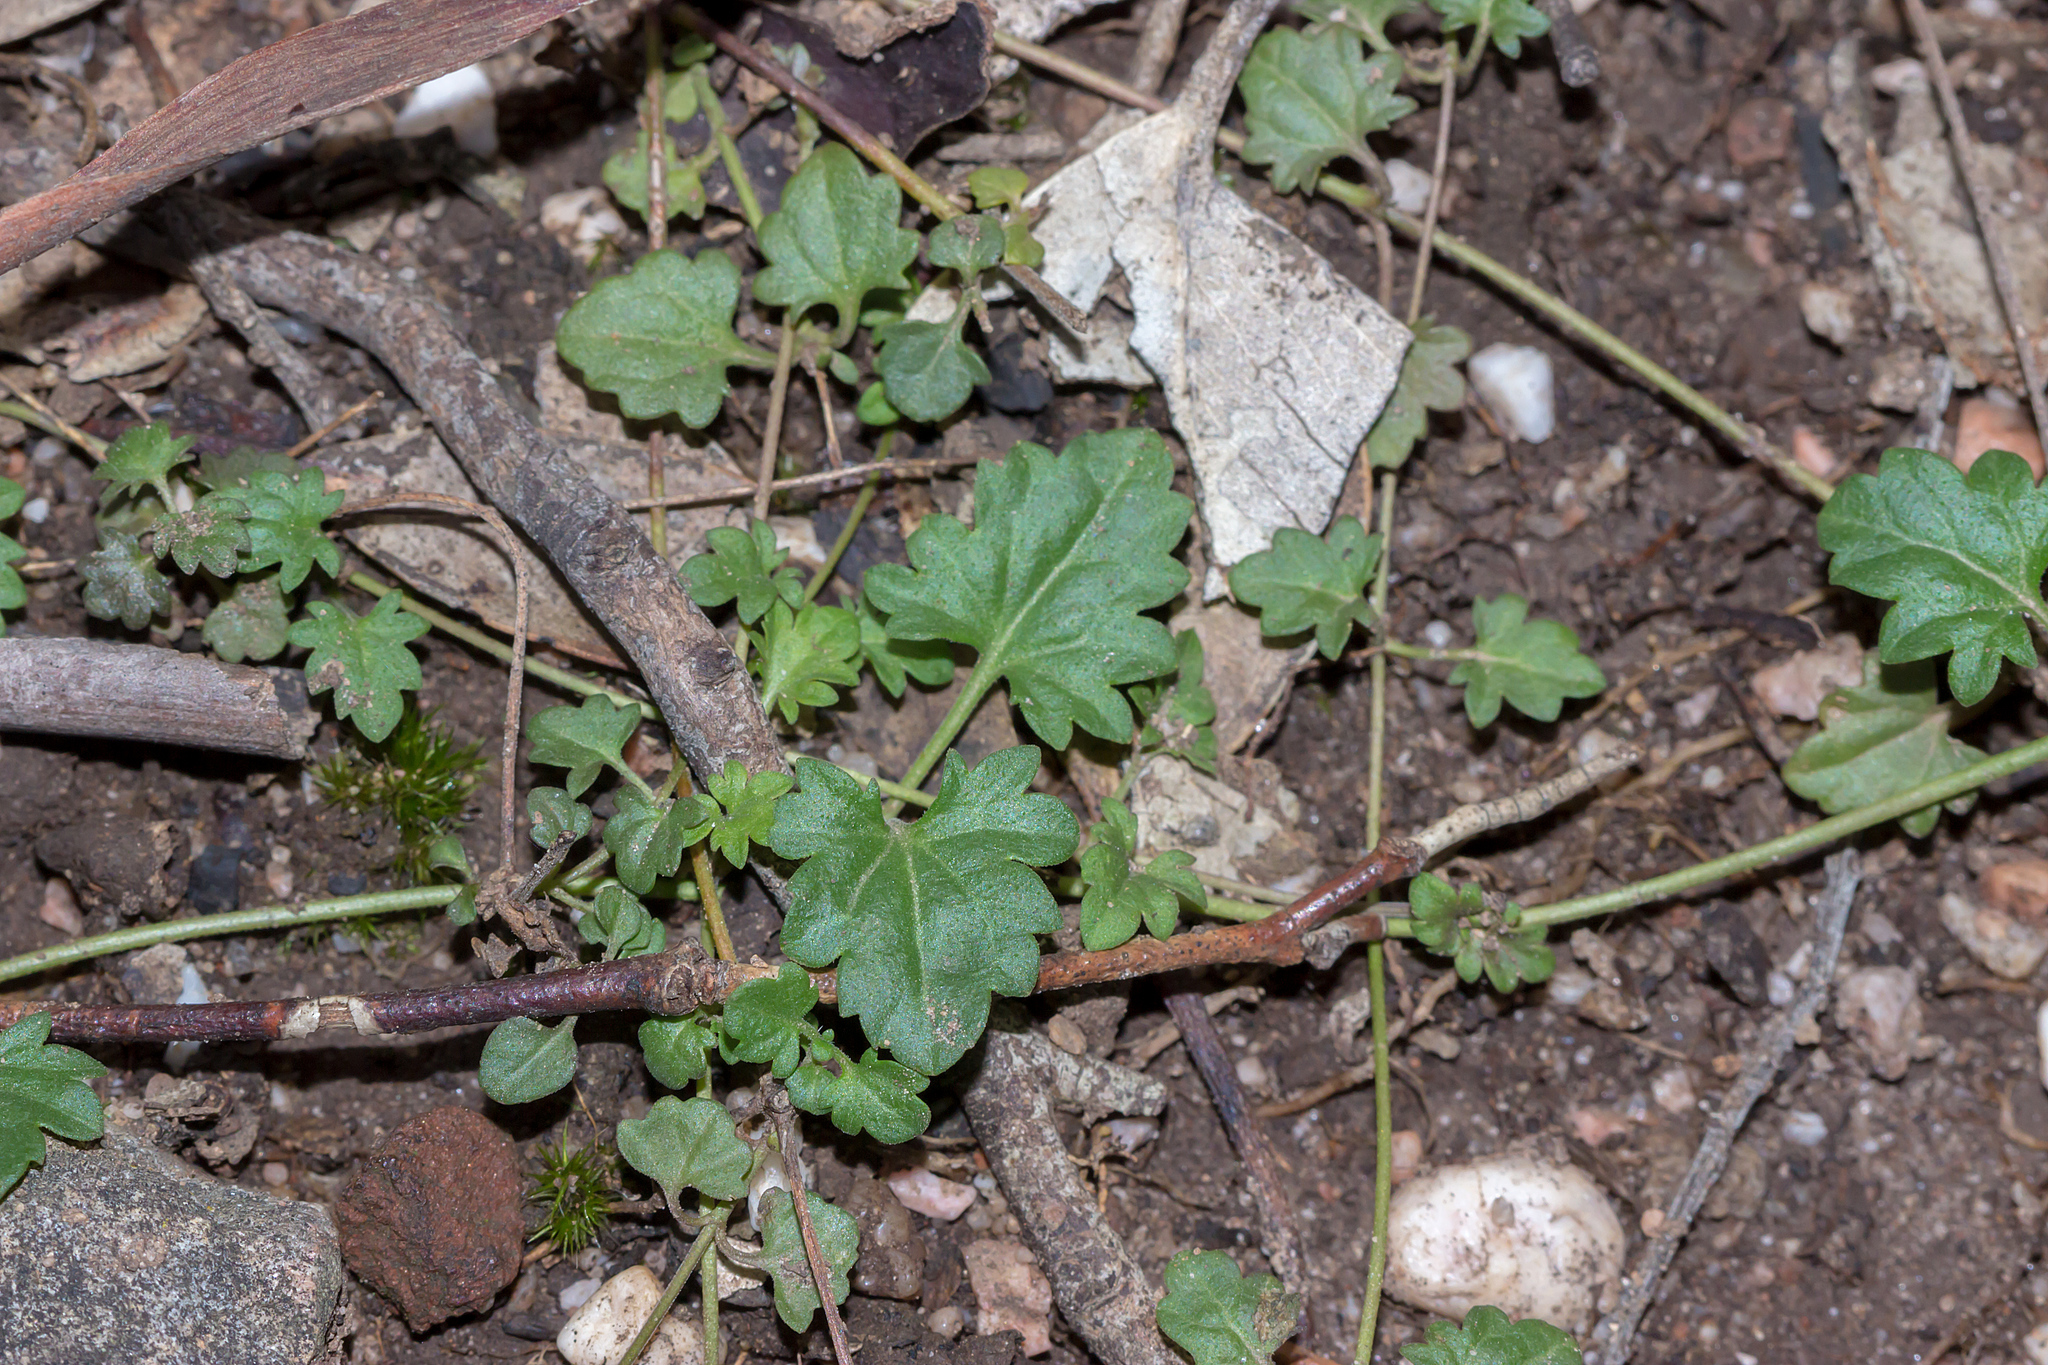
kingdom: Plantae
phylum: Tracheophyta
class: Magnoliopsida
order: Lamiales
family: Plantaginaceae
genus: Veronica
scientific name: Veronica plebeia
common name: Speedwell
